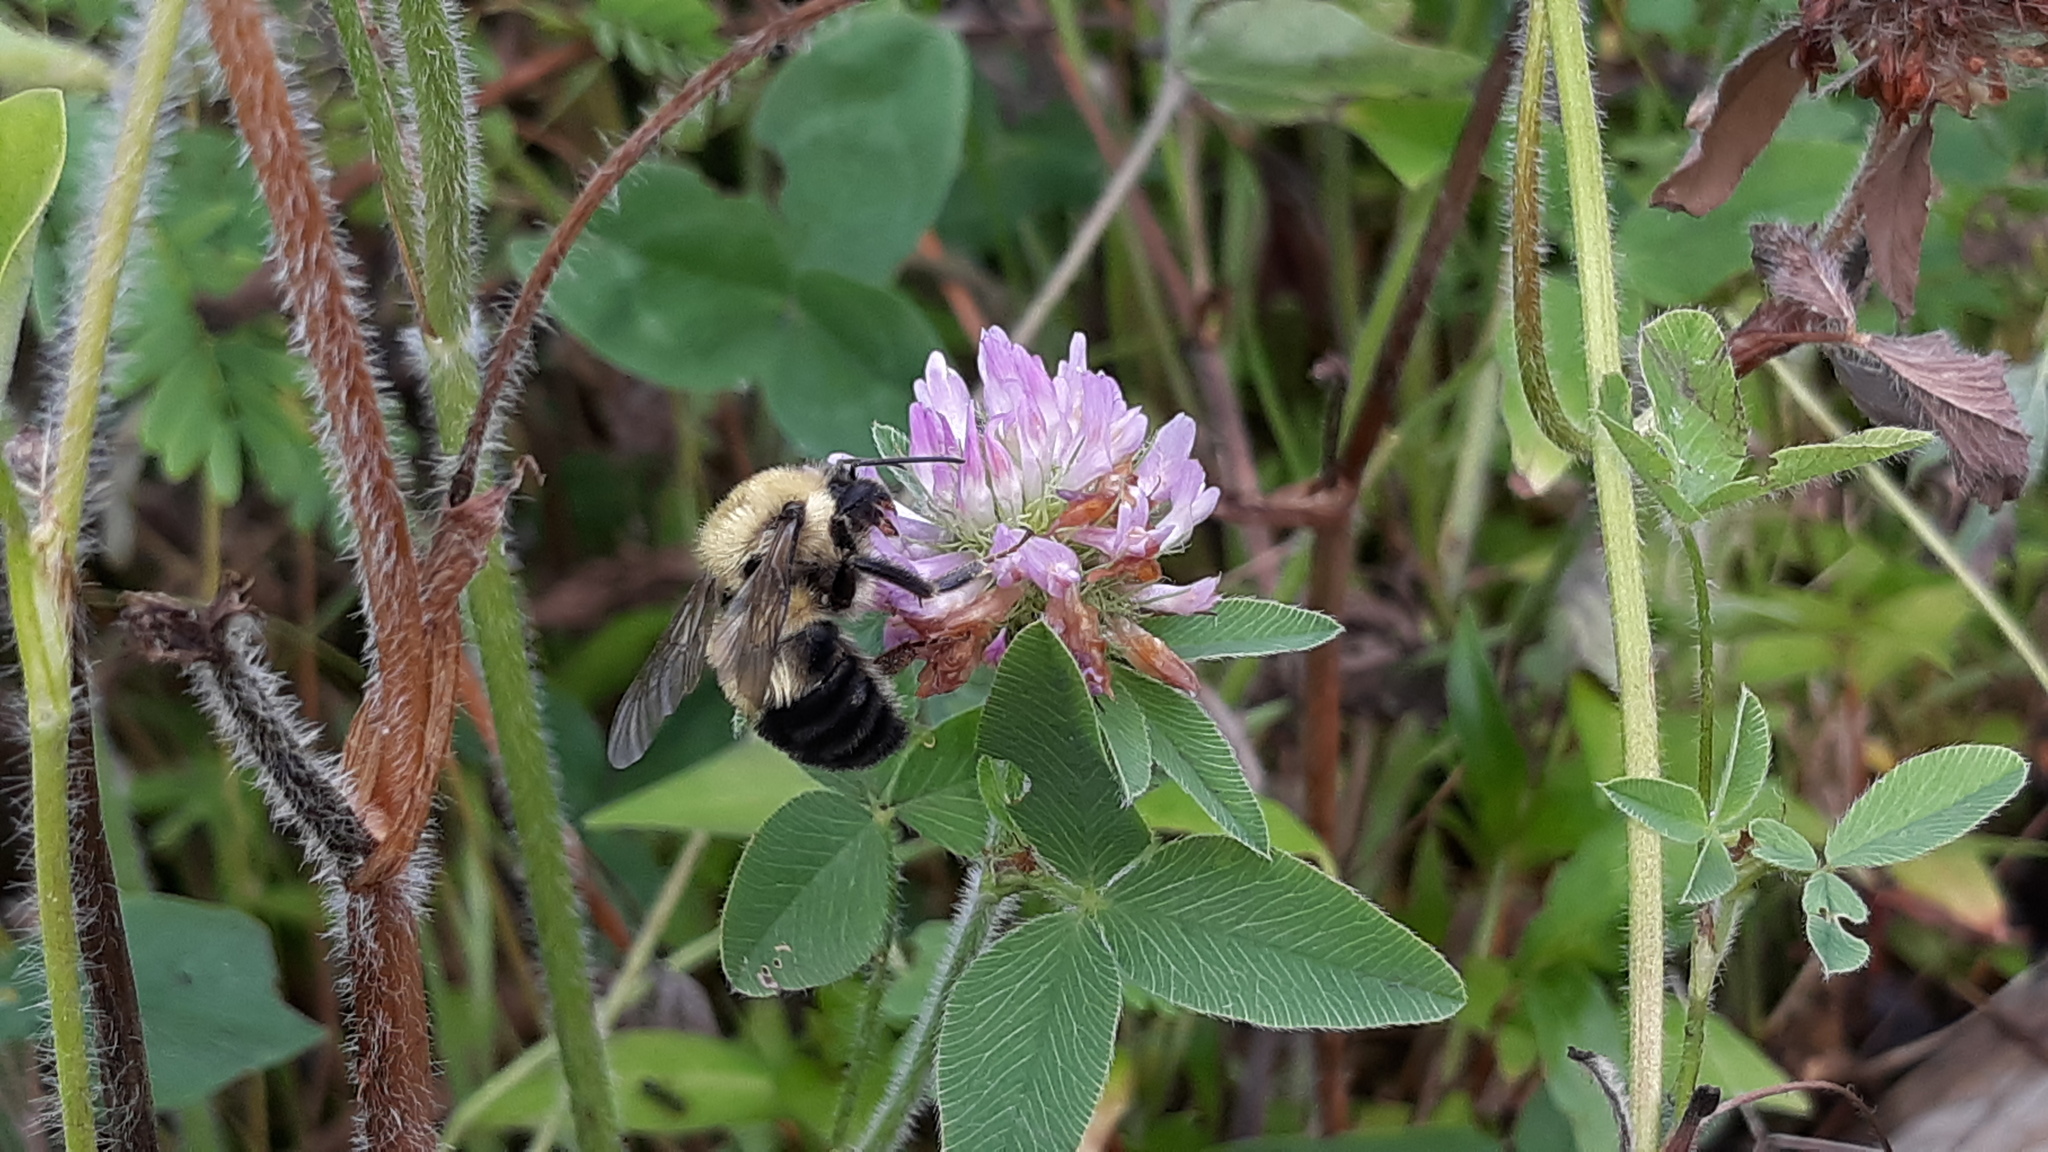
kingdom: Plantae
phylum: Tracheophyta
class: Magnoliopsida
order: Fabales
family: Fabaceae
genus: Trifolium
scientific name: Trifolium pratense
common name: Red clover
